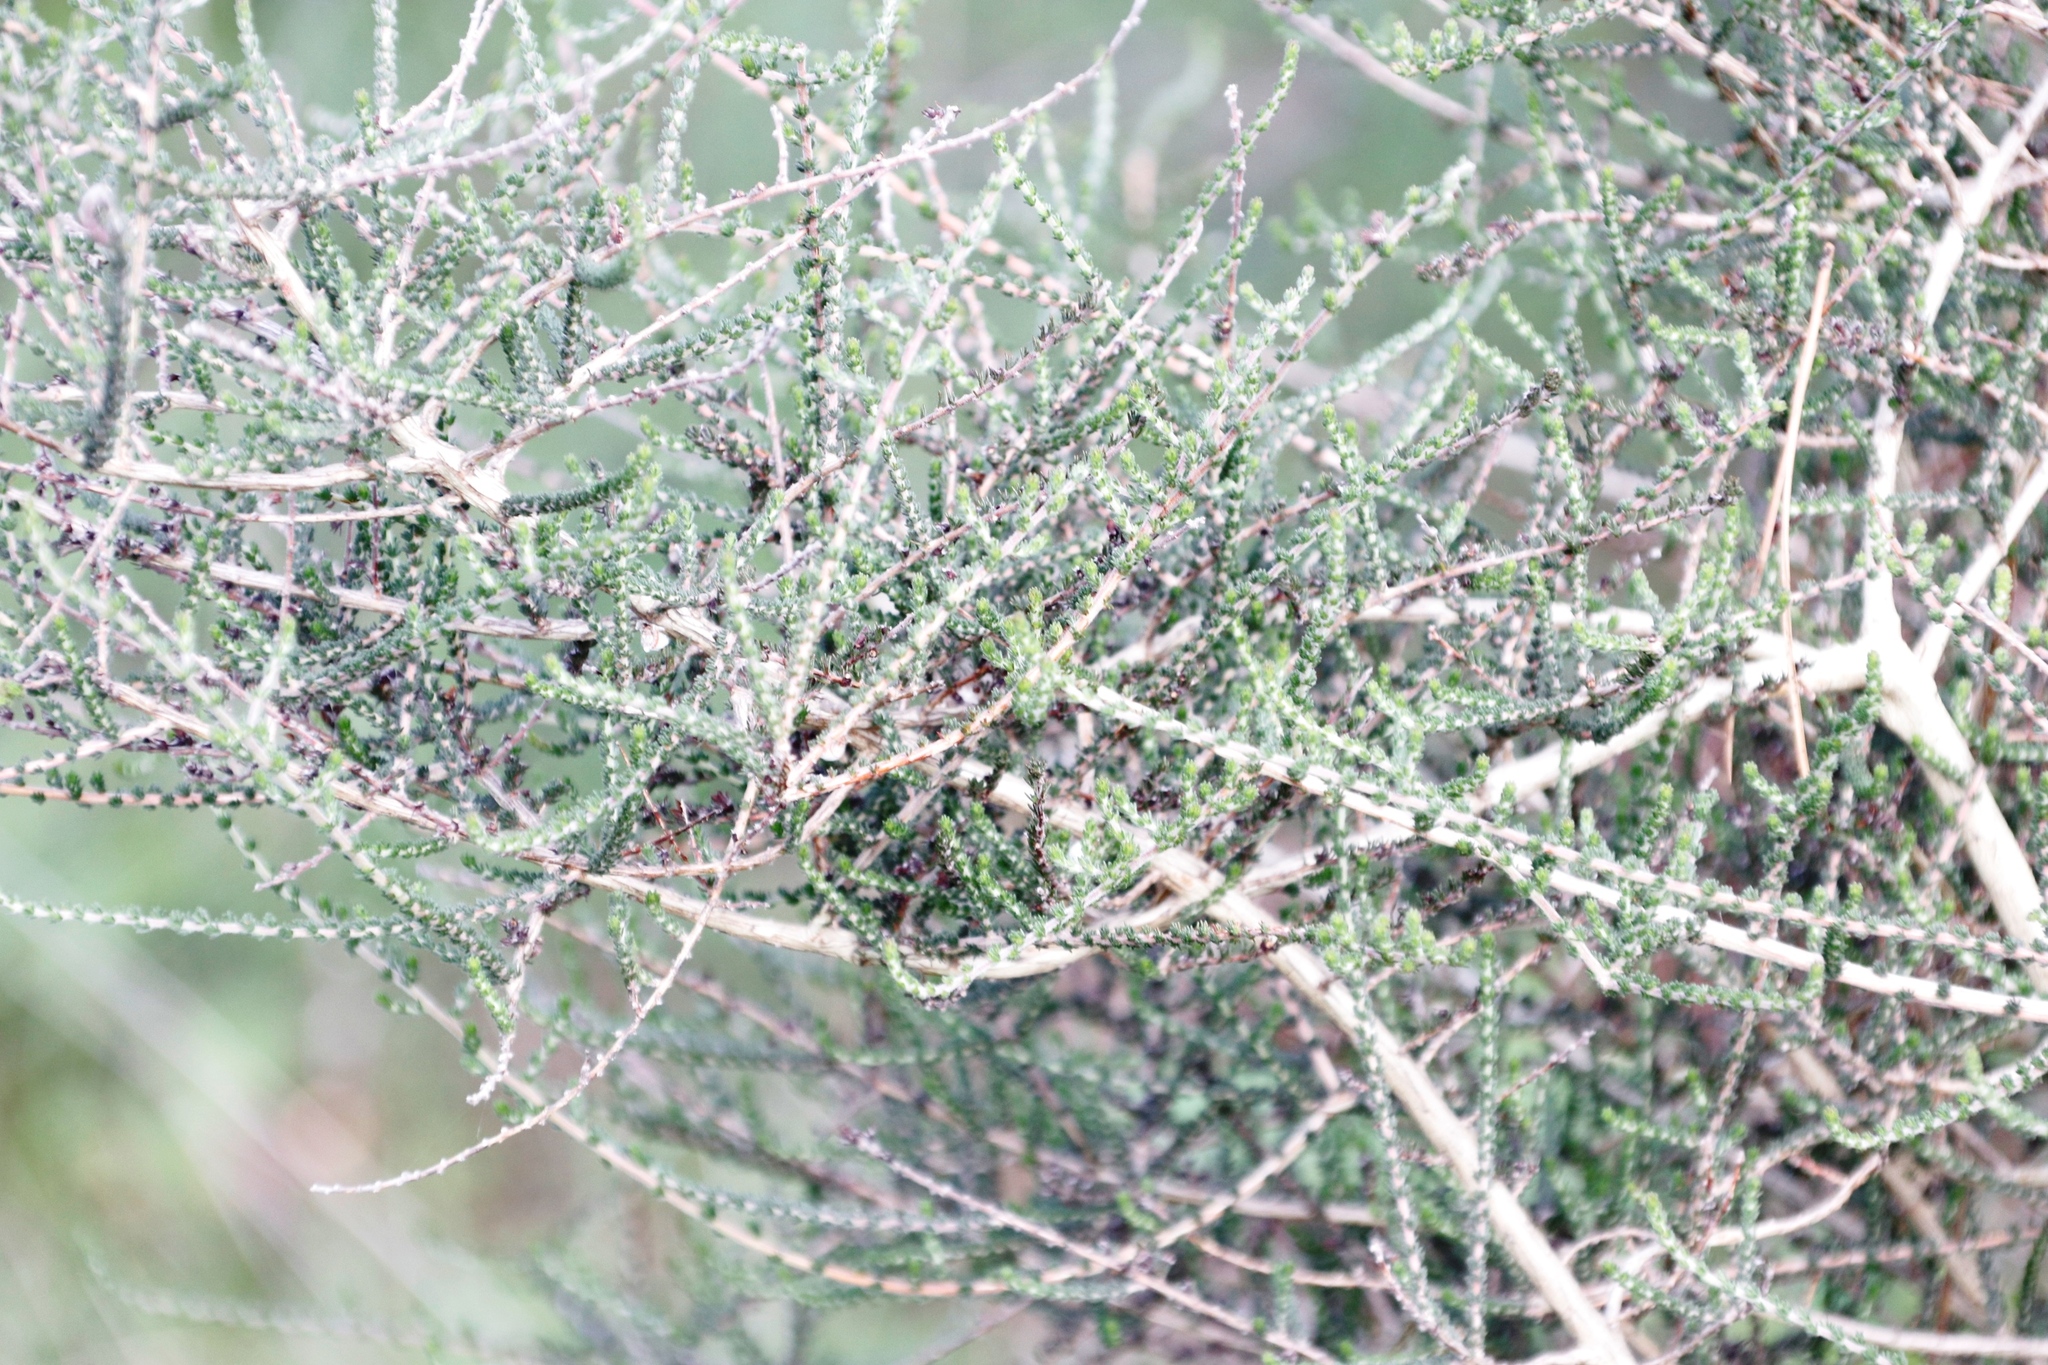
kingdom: Plantae
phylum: Tracheophyta
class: Magnoliopsida
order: Fabales
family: Fabaceae
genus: Aspalathus
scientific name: Aspalathus hispida
